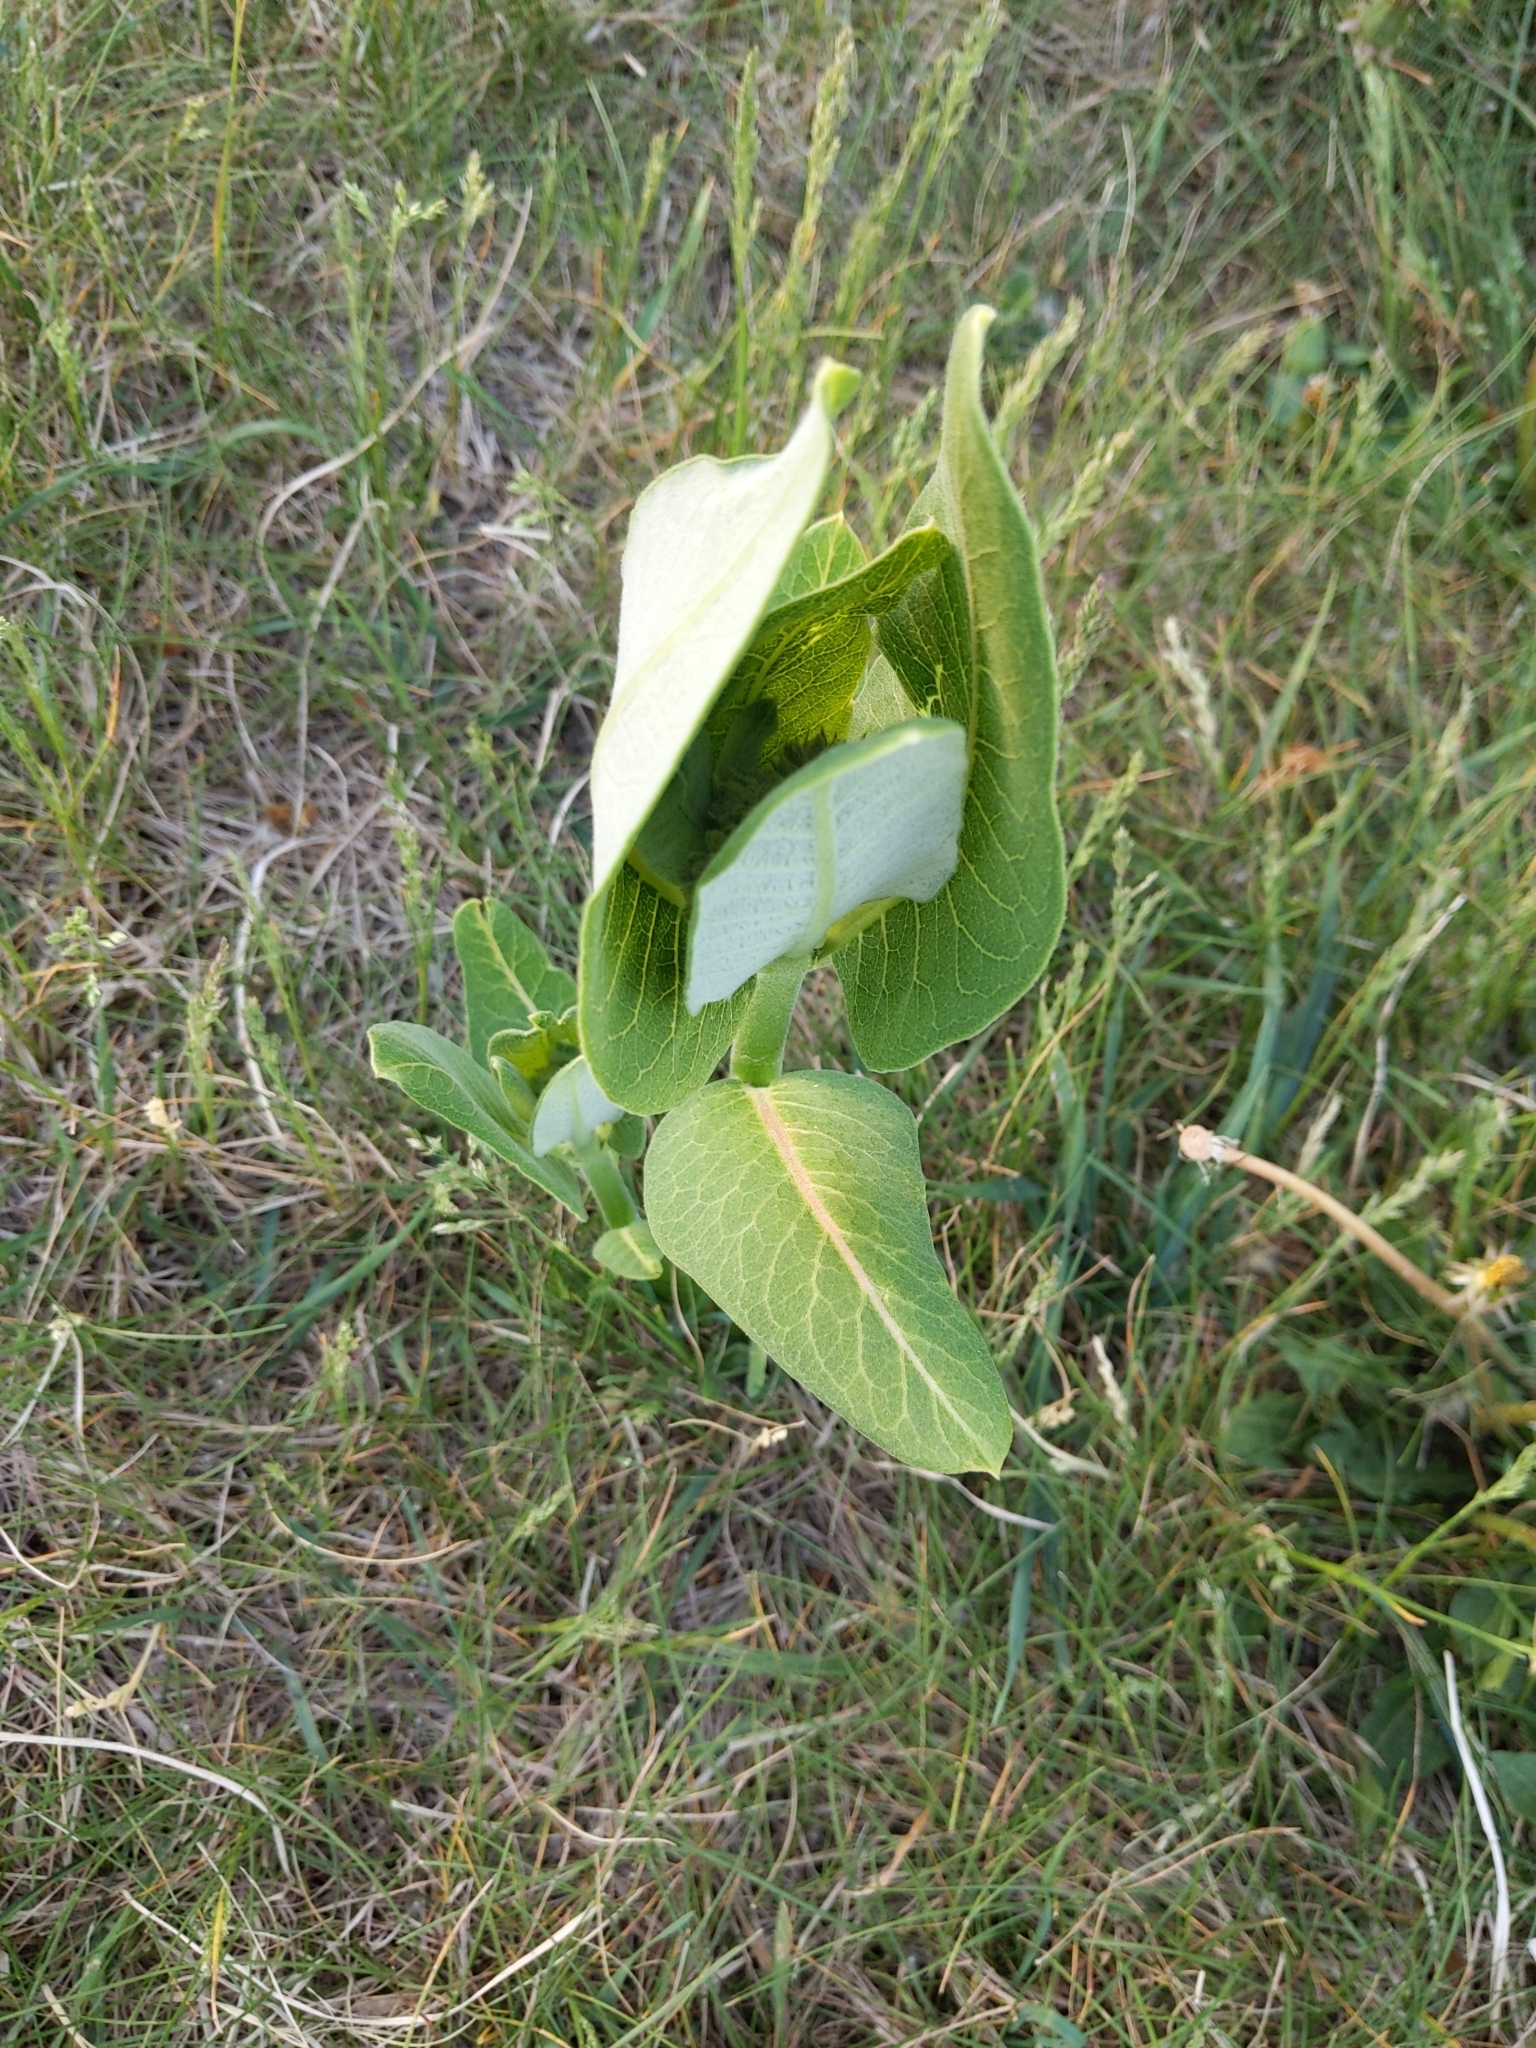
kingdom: Plantae
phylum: Tracheophyta
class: Magnoliopsida
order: Gentianales
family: Apocynaceae
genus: Asclepias
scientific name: Asclepias syriaca
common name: Common milkweed
